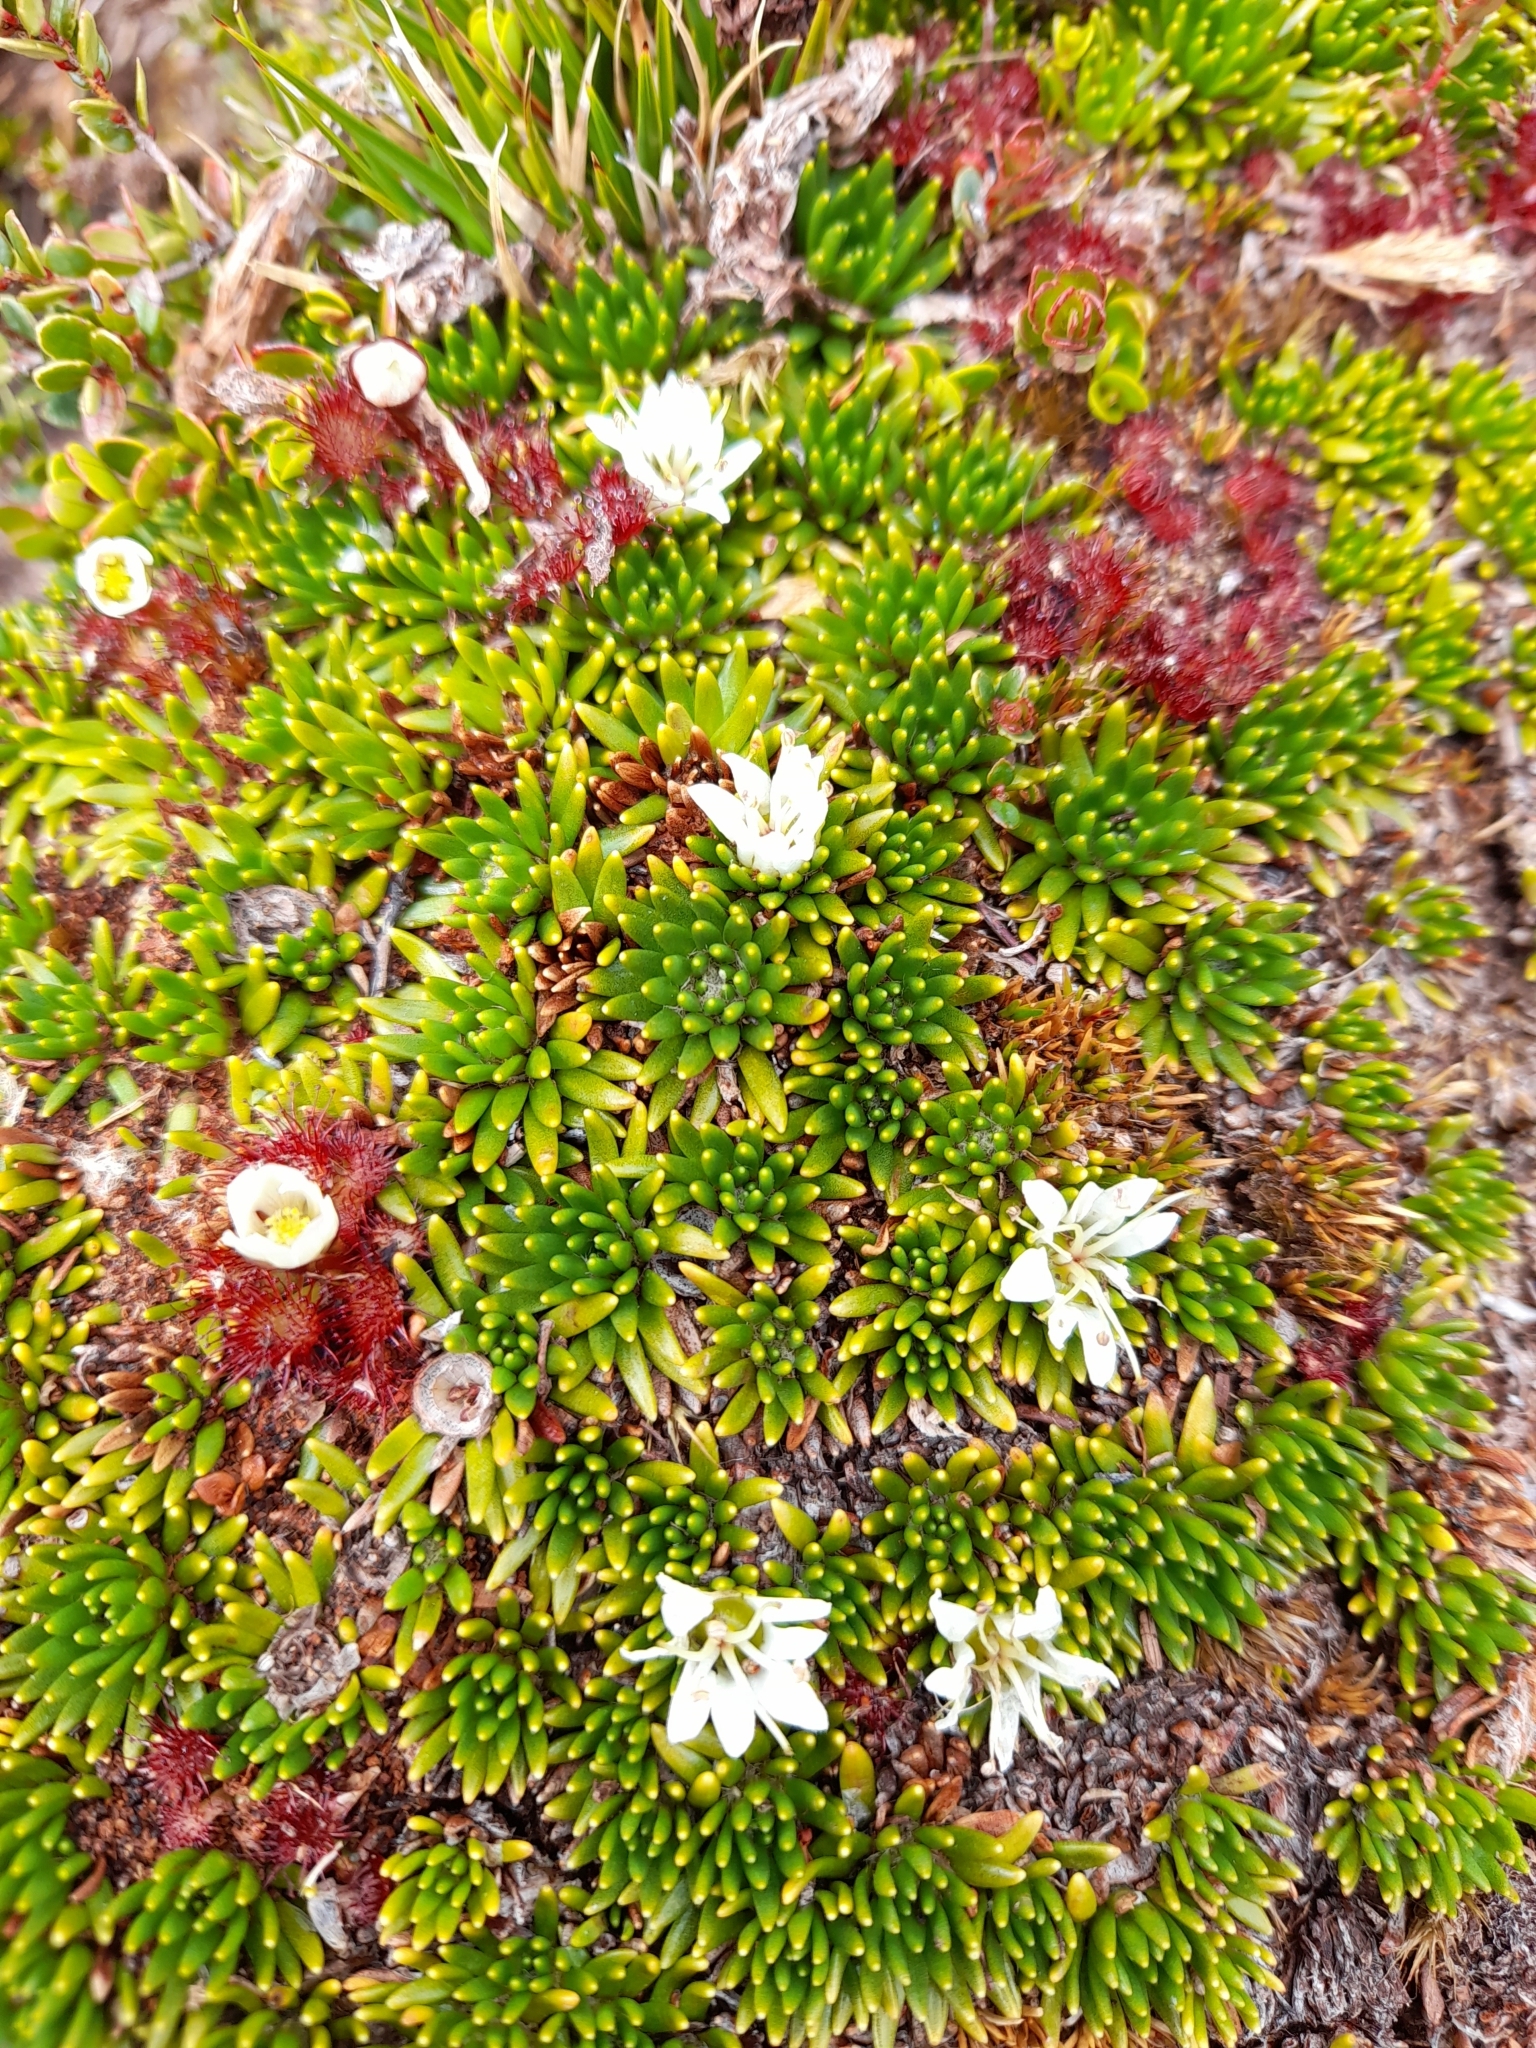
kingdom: Plantae
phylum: Tracheophyta
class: Magnoliopsida
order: Asterales
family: Stylidiaceae
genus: Donatia
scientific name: Donatia fascicularis
